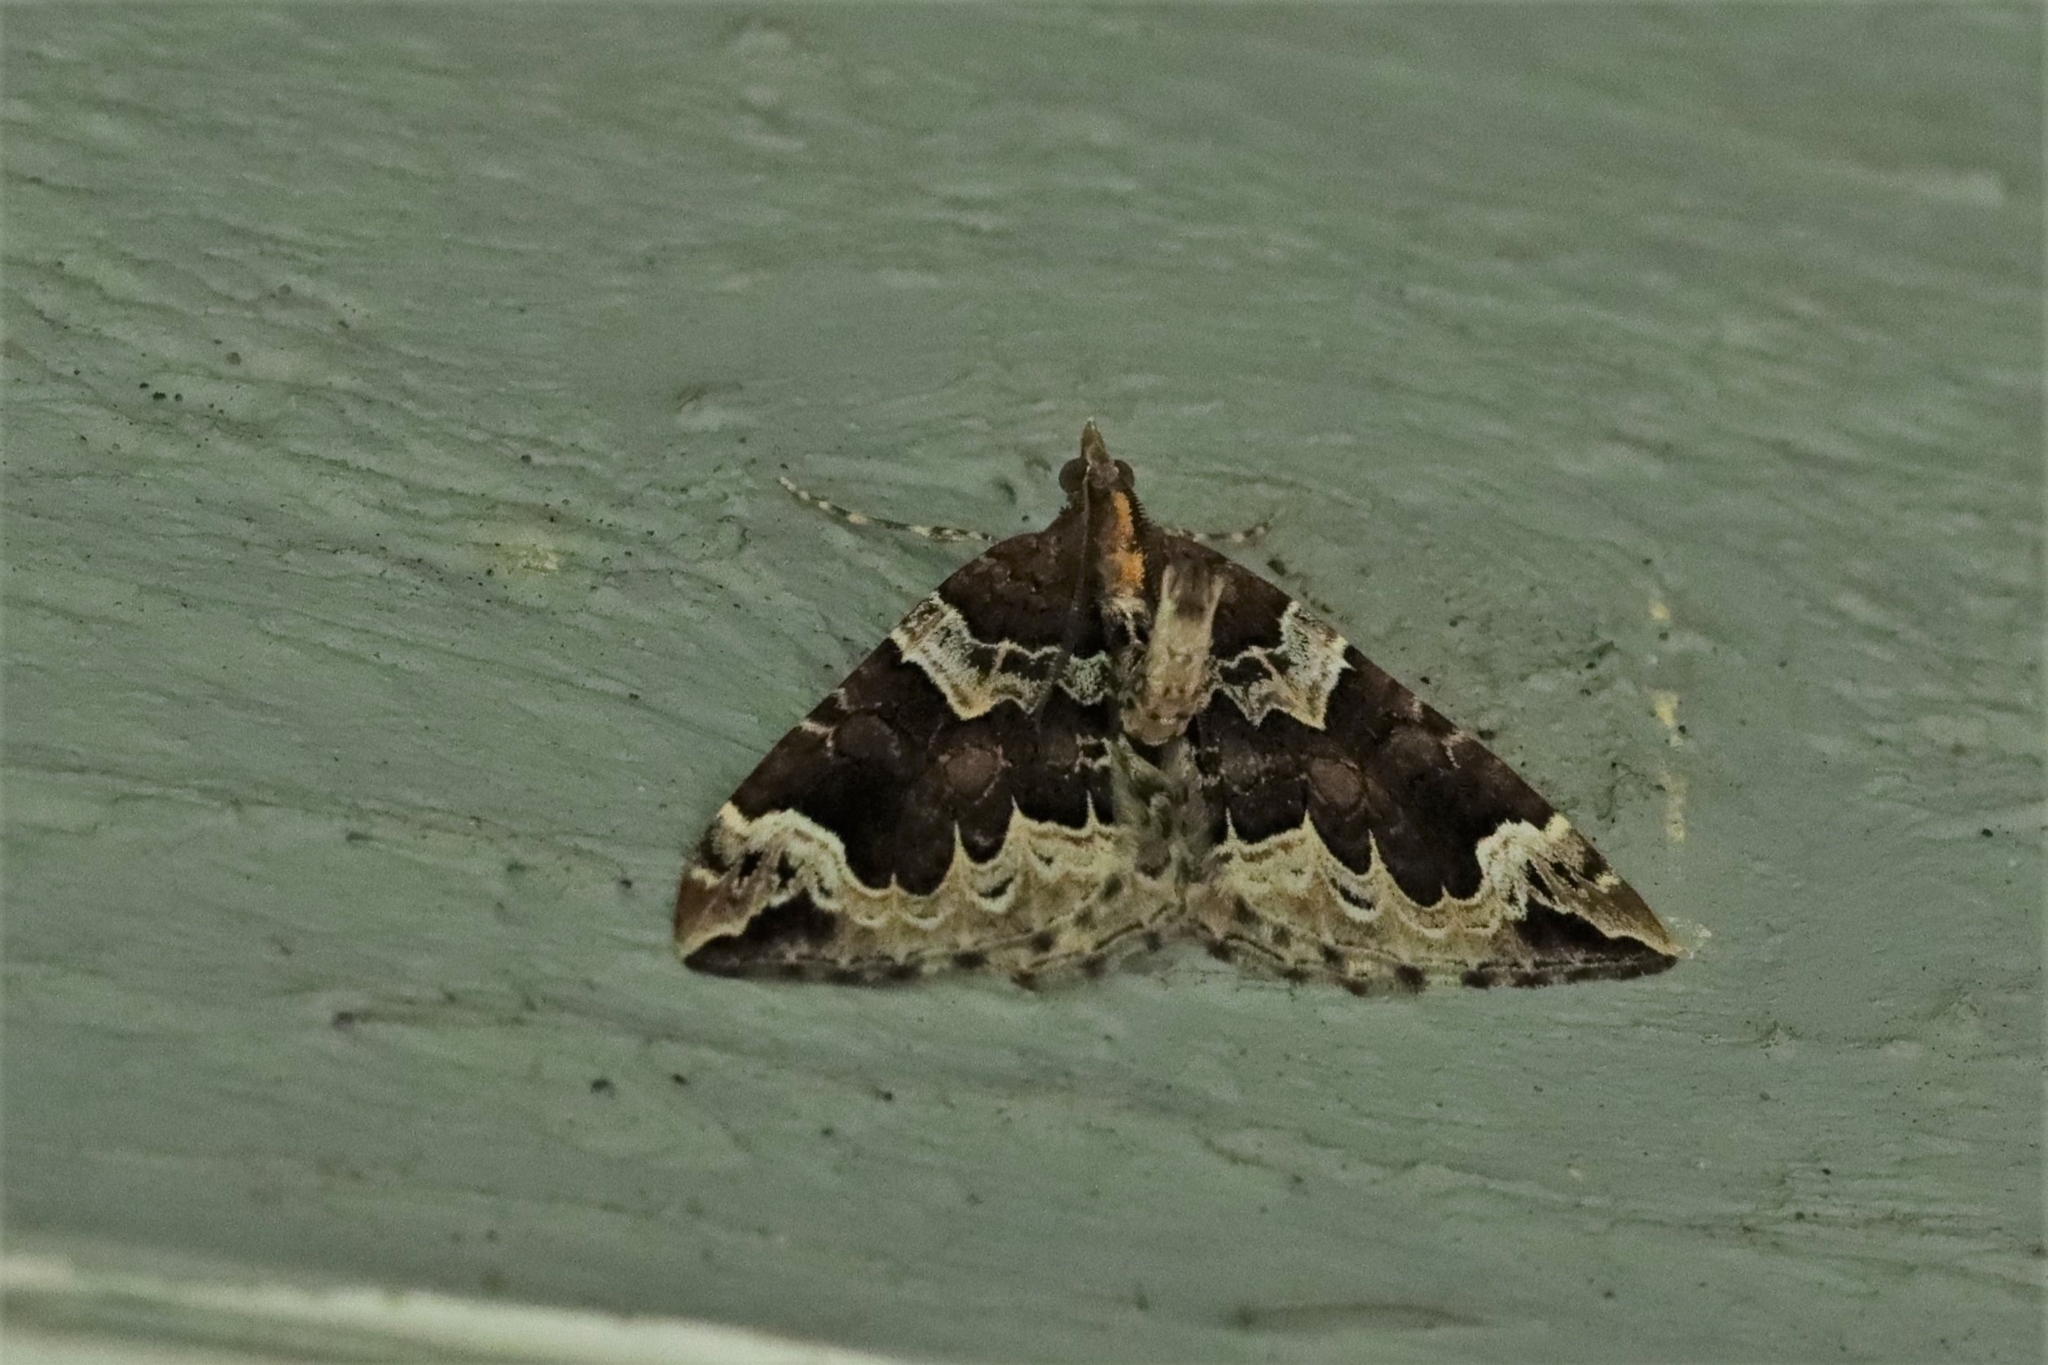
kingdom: Animalia
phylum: Arthropoda
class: Insecta
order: Lepidoptera
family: Geometridae
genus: Eulithis
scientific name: Eulithis xylina
